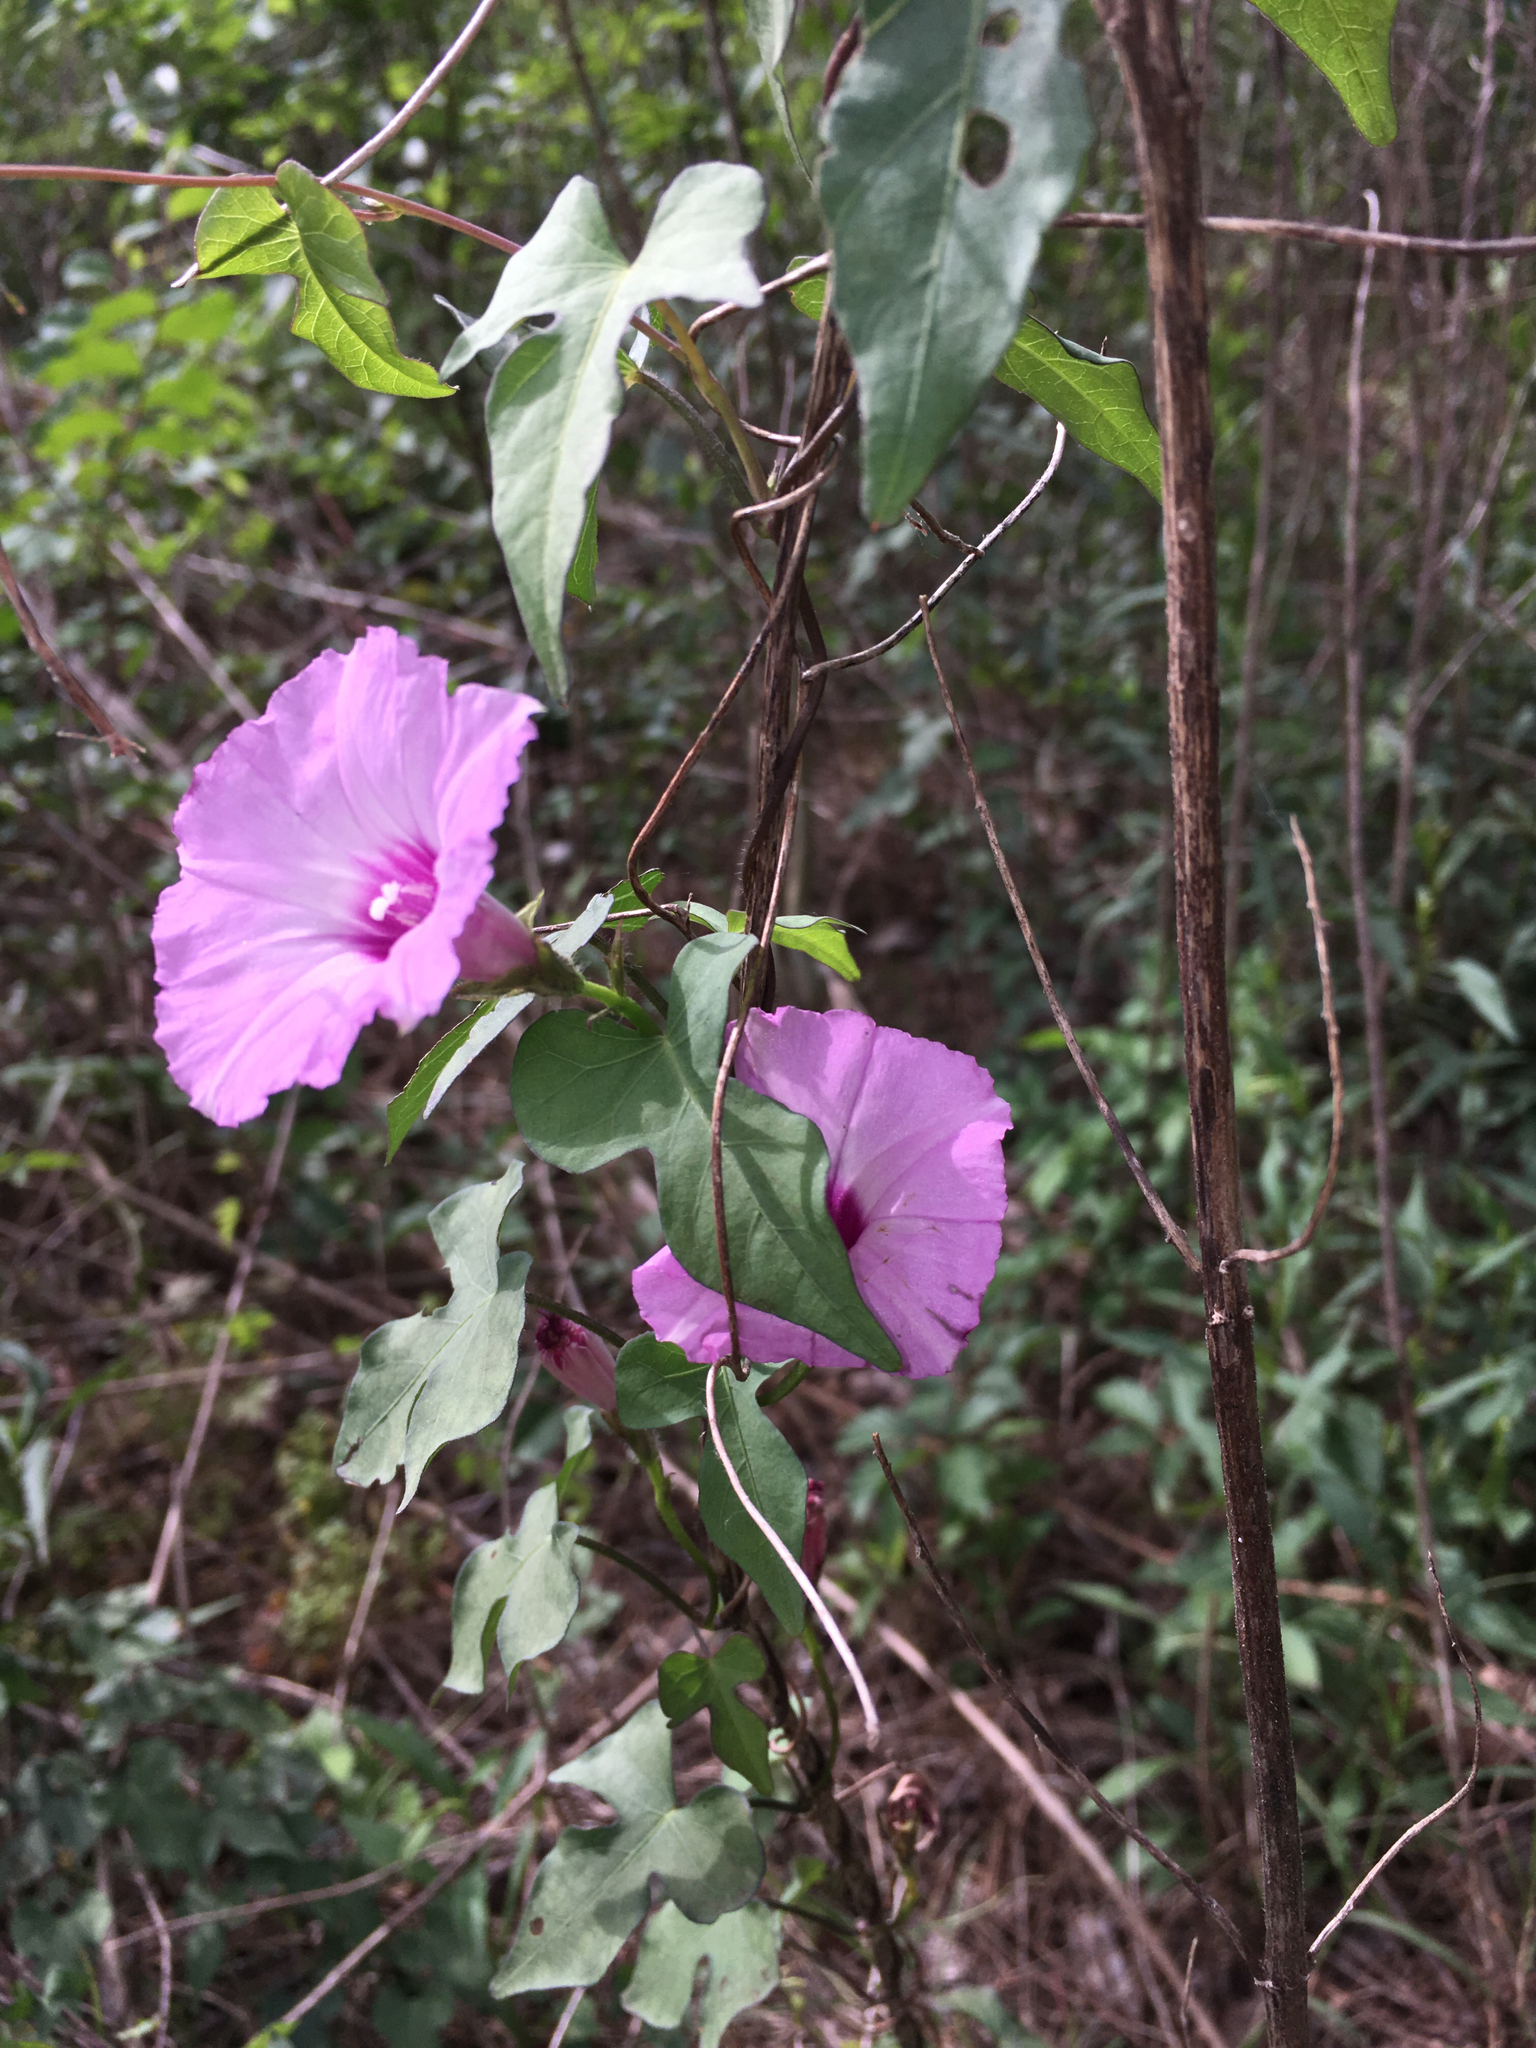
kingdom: Plantae
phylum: Tracheophyta
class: Magnoliopsida
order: Solanales
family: Convolvulaceae
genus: Ipomoea
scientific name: Ipomoea cordatotriloba
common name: Cotton morning glory
